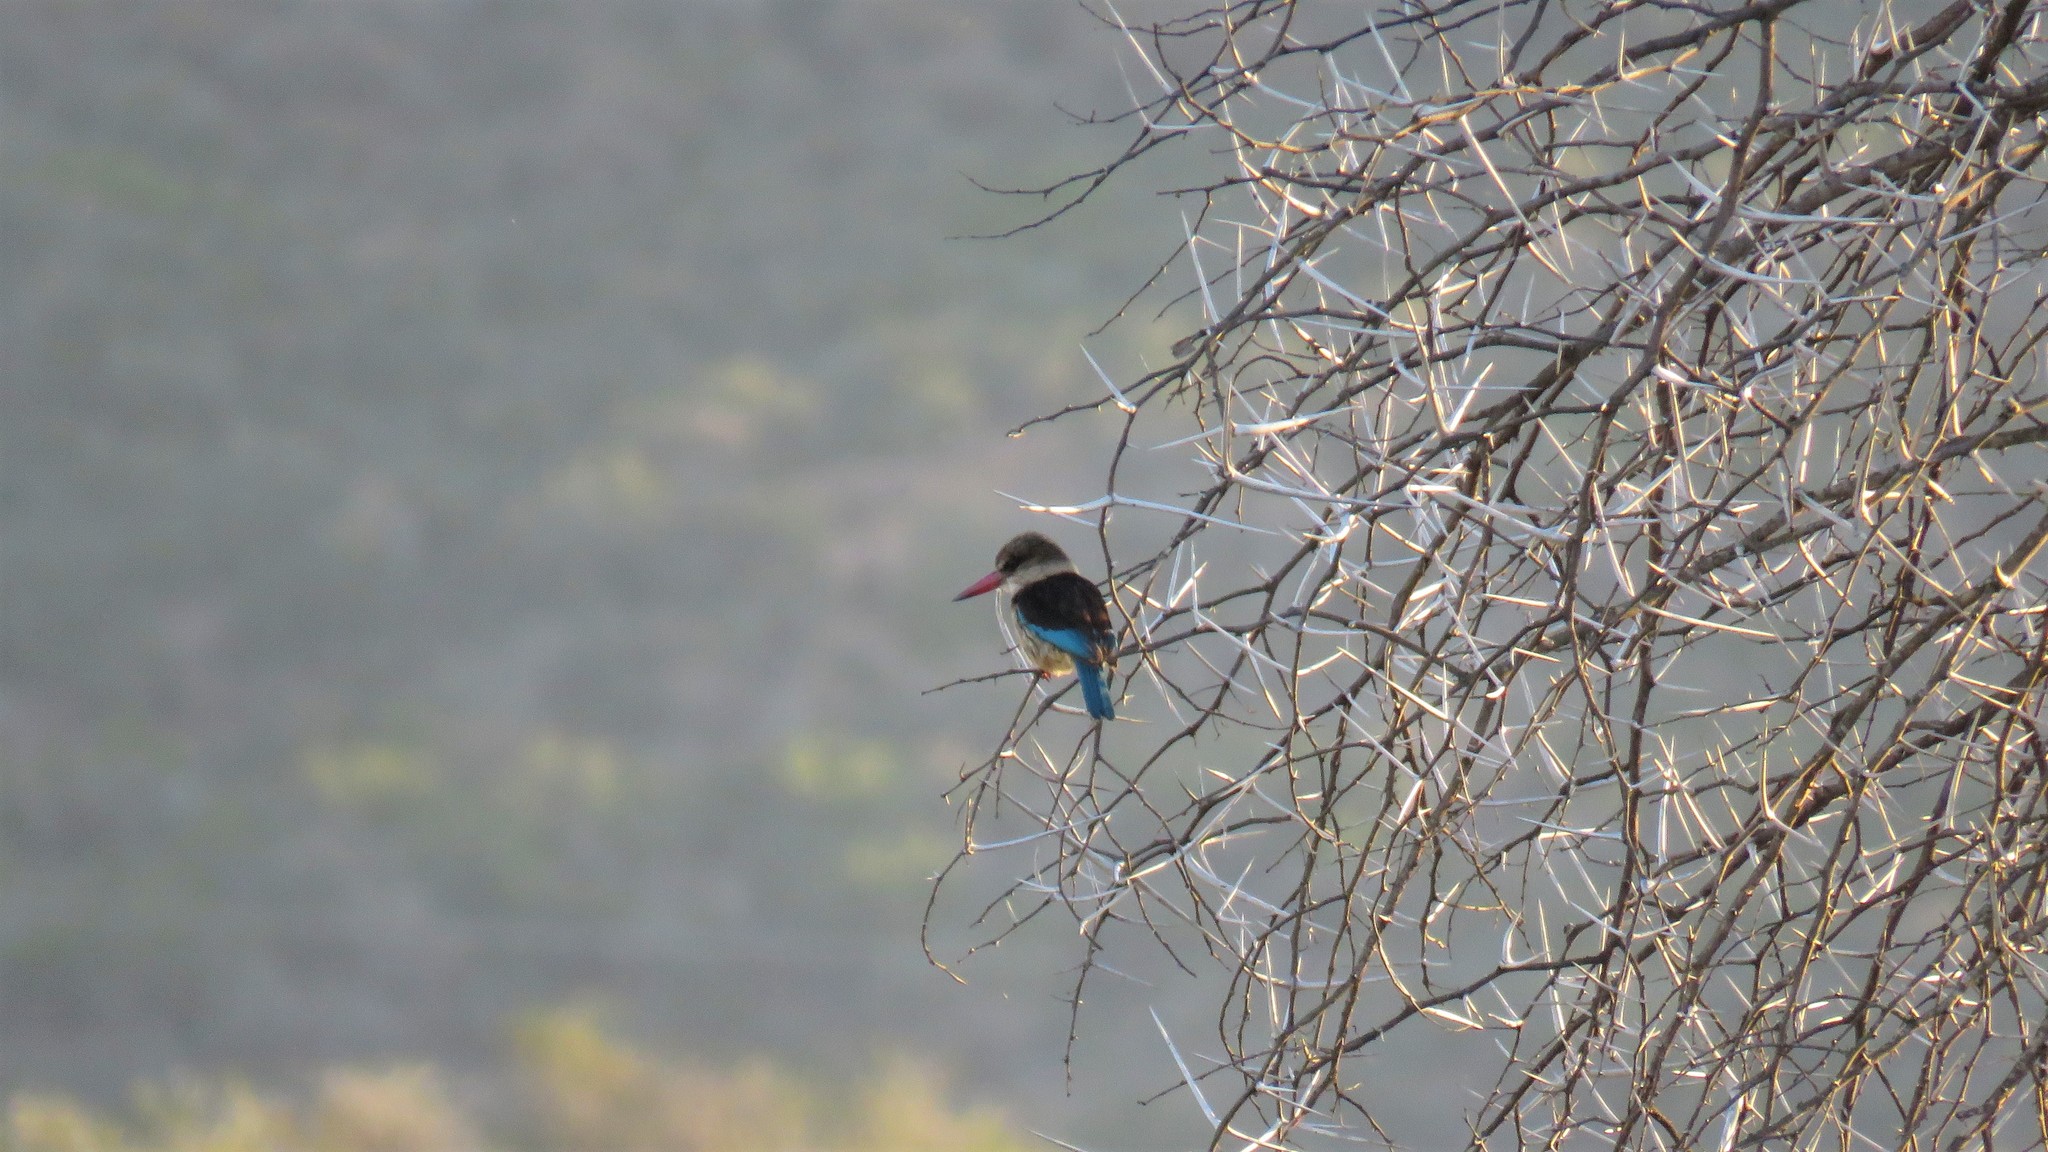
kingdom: Animalia
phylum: Chordata
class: Aves
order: Coraciiformes
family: Alcedinidae
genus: Halcyon
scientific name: Halcyon albiventris
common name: Brown-hooded kingfisher
